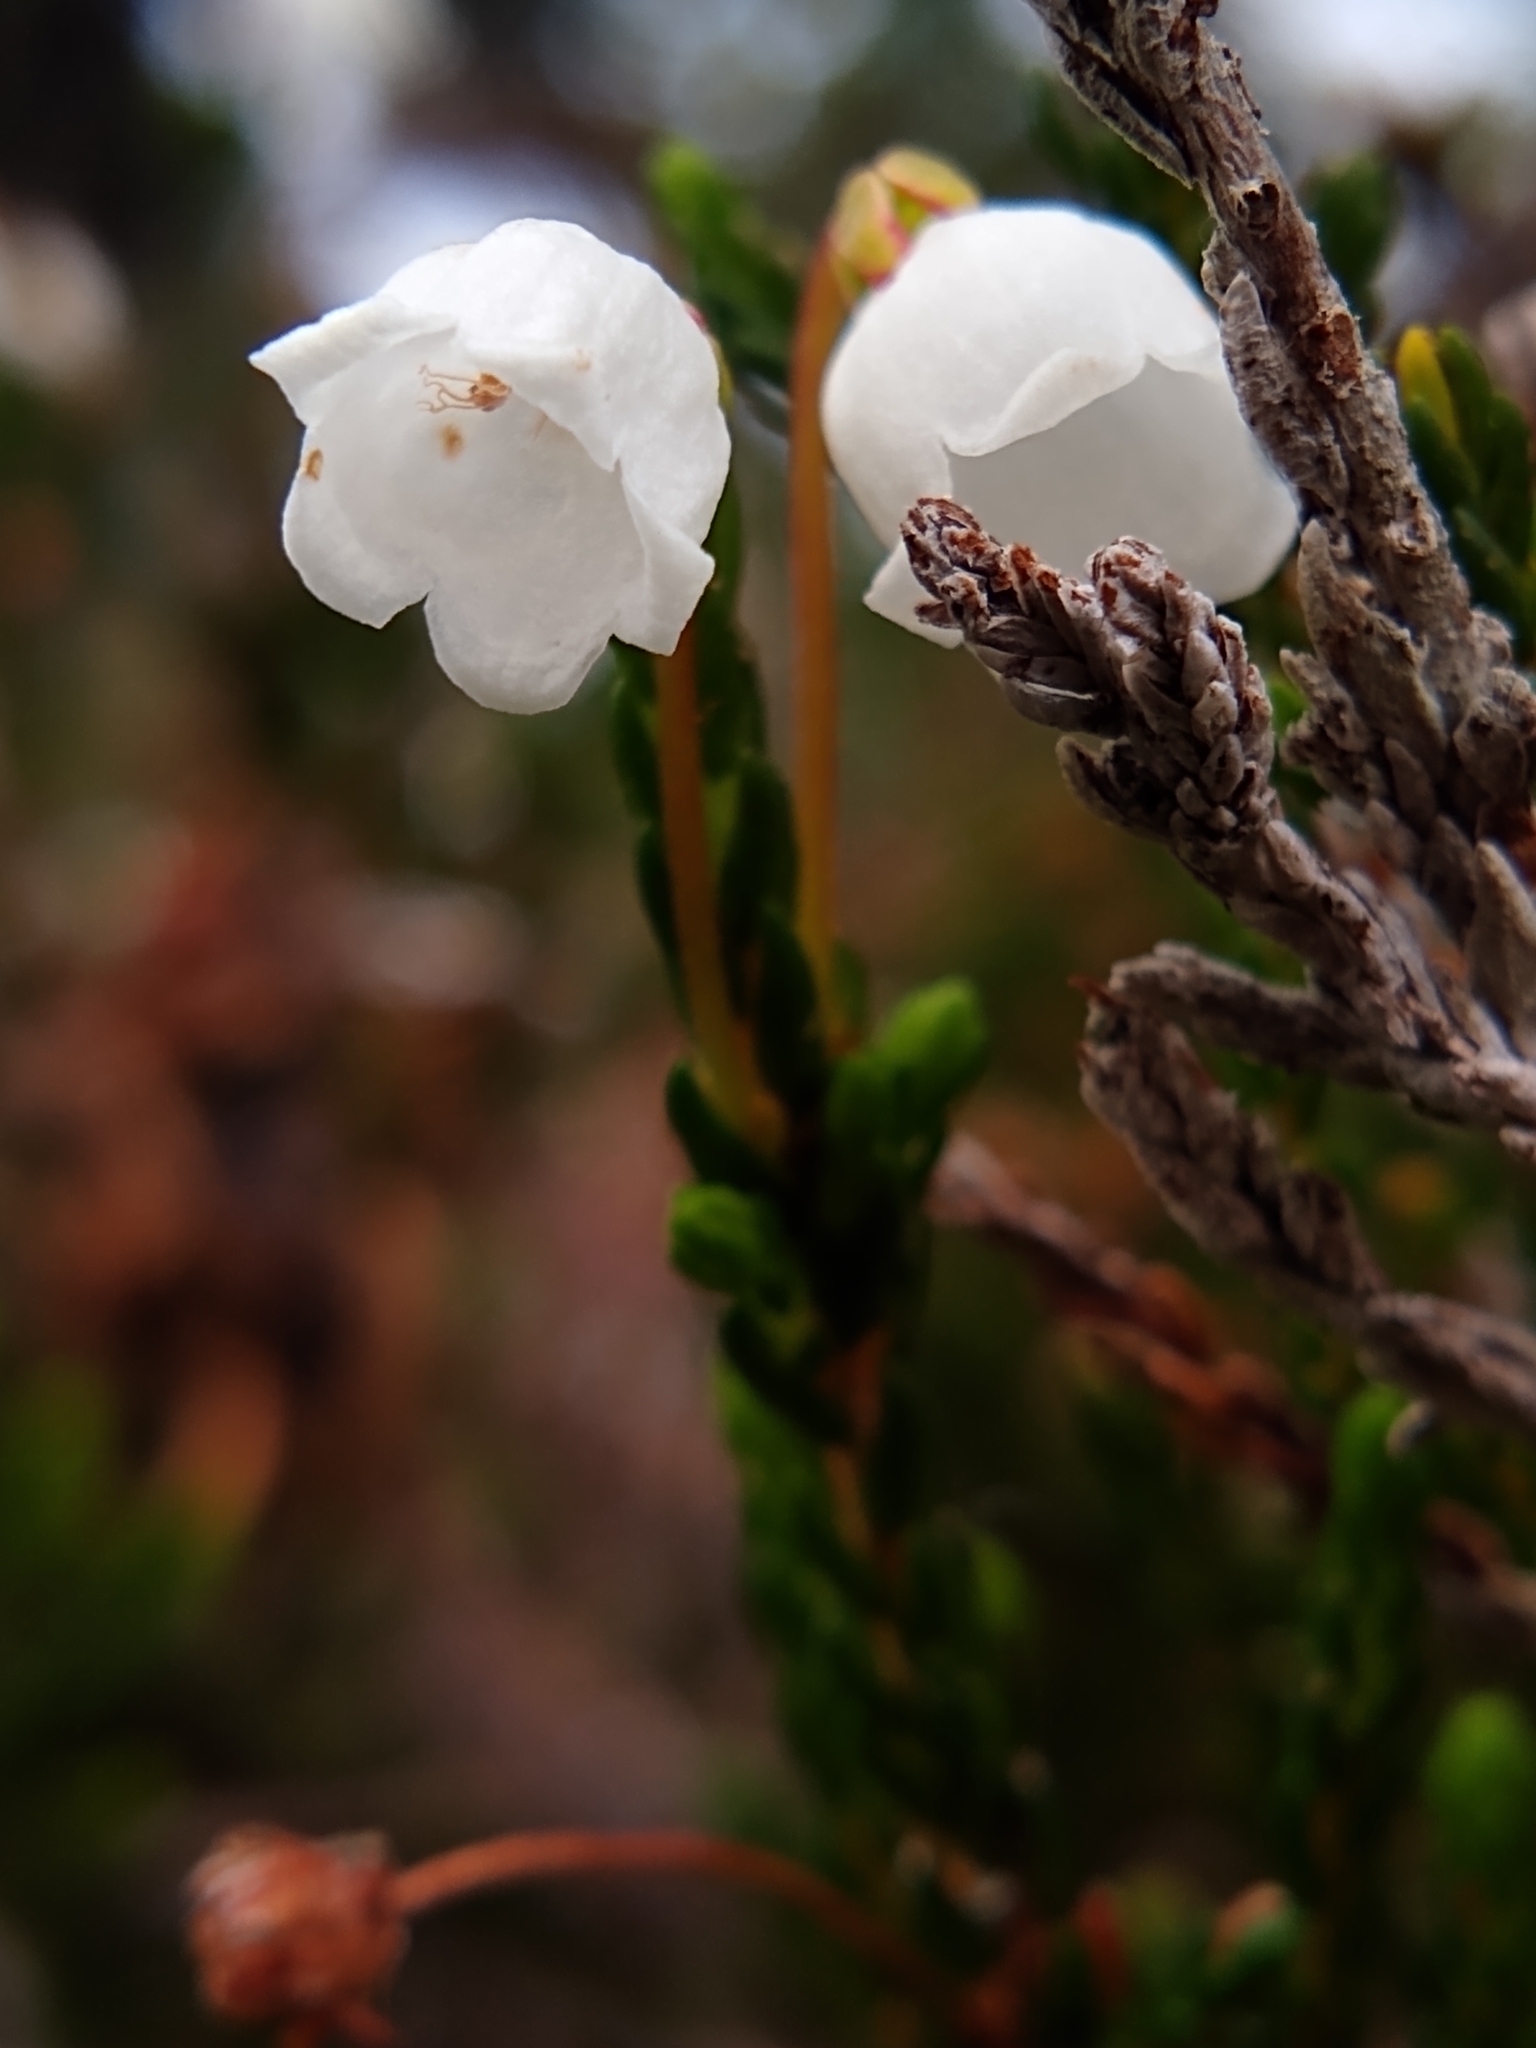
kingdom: Plantae
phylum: Tracheophyta
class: Magnoliopsida
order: Ericales
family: Ericaceae
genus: Cassiope
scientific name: Cassiope mertensiana
